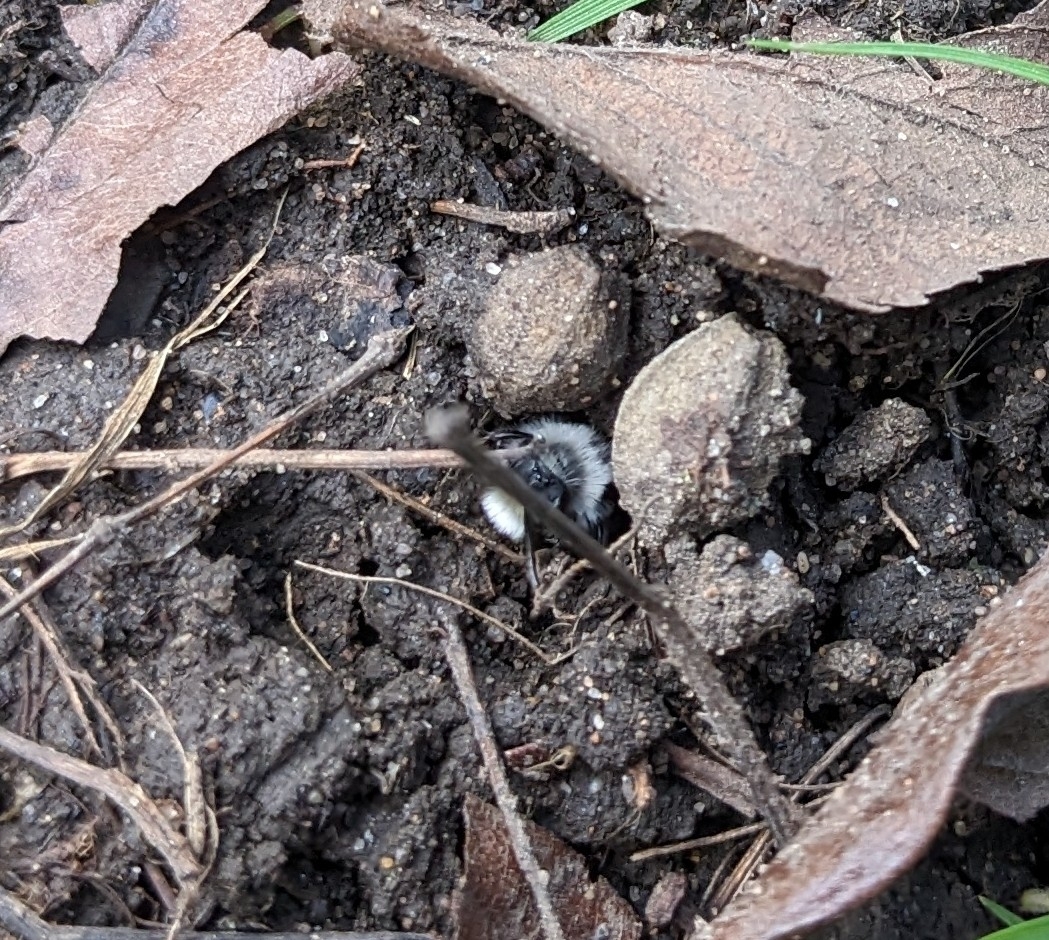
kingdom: Animalia
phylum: Arthropoda
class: Insecta
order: Hymenoptera
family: Andrenidae
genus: Andrena
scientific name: Andrena cineraria
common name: Ashy mining bee
